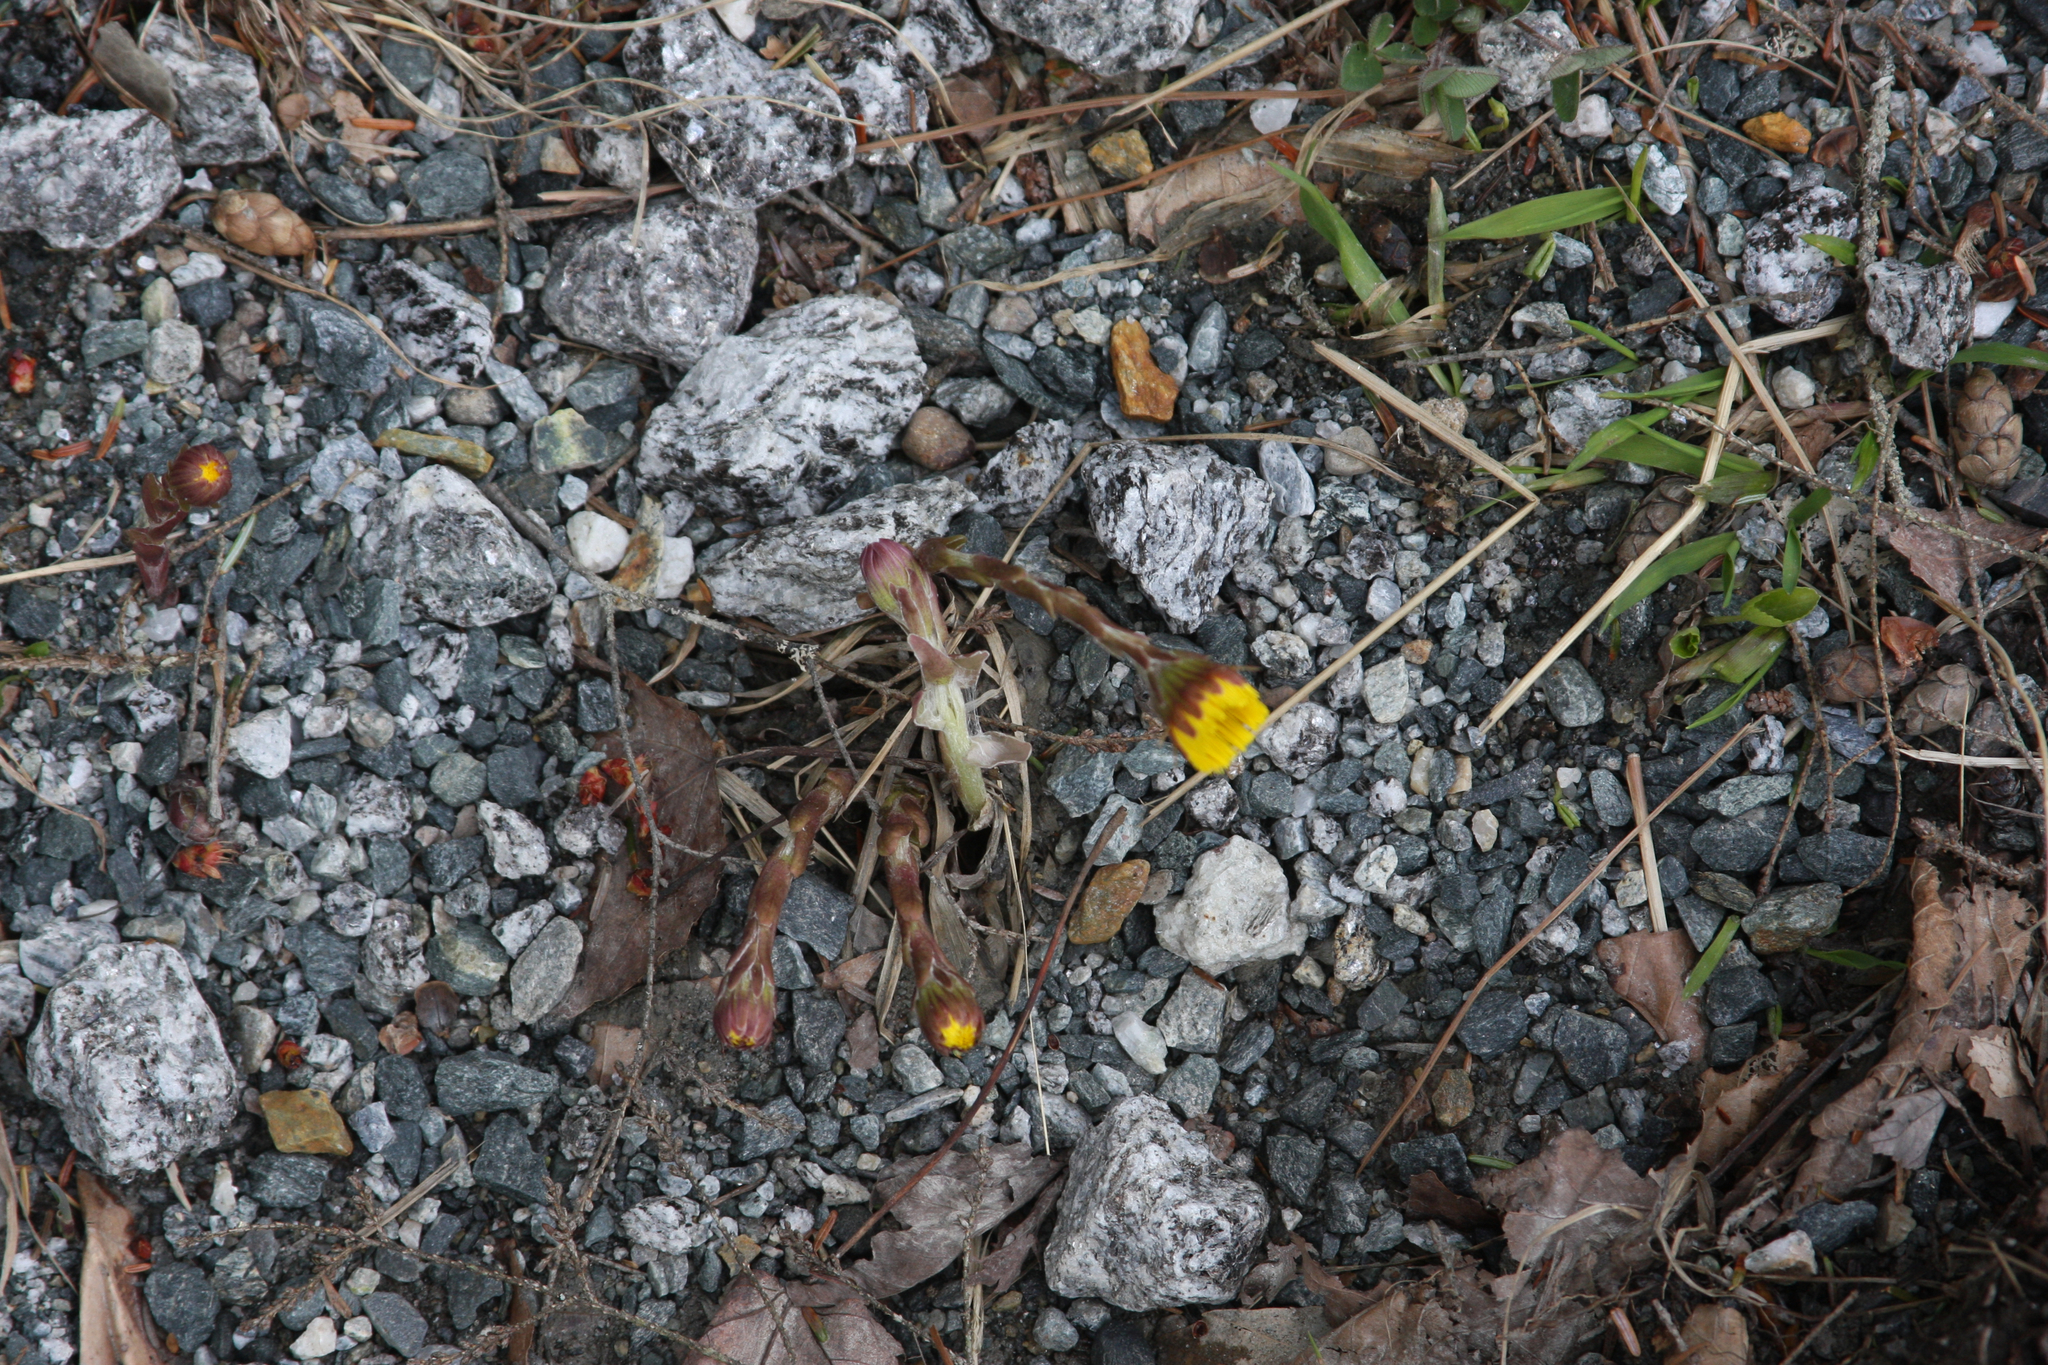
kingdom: Plantae
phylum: Tracheophyta
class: Magnoliopsida
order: Asterales
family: Asteraceae
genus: Tussilago
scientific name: Tussilago farfara
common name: Coltsfoot
